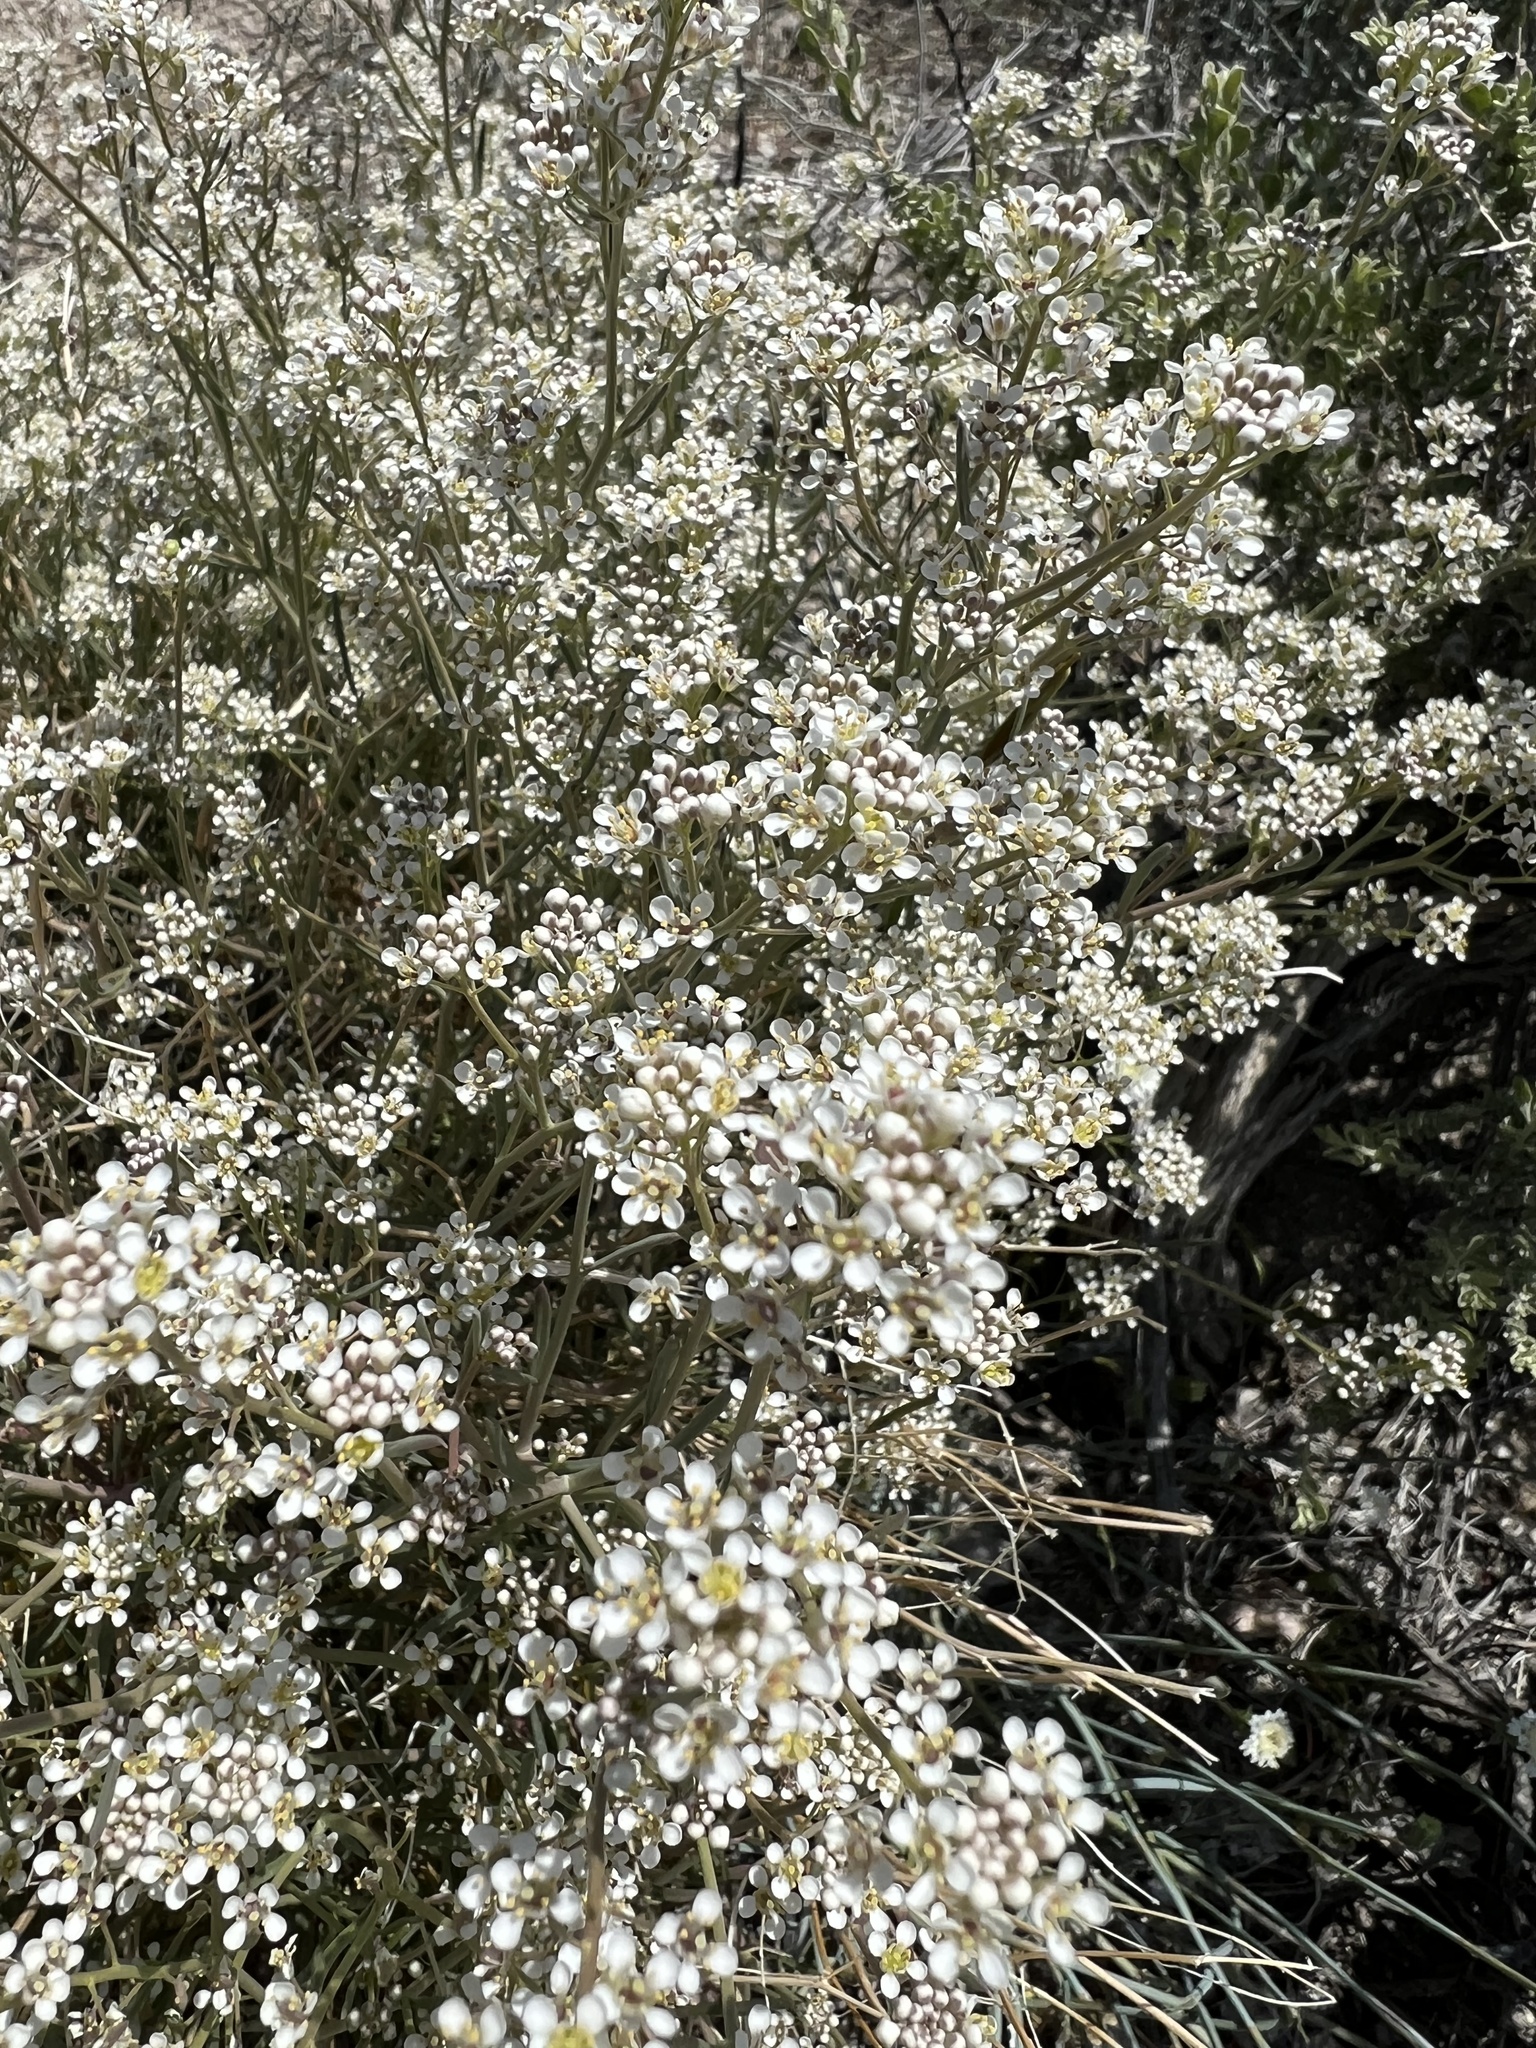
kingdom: Plantae
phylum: Tracheophyta
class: Magnoliopsida
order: Brassicales
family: Brassicaceae
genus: Lepidium
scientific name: Lepidium fremontii
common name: Fremont's pepperwort
